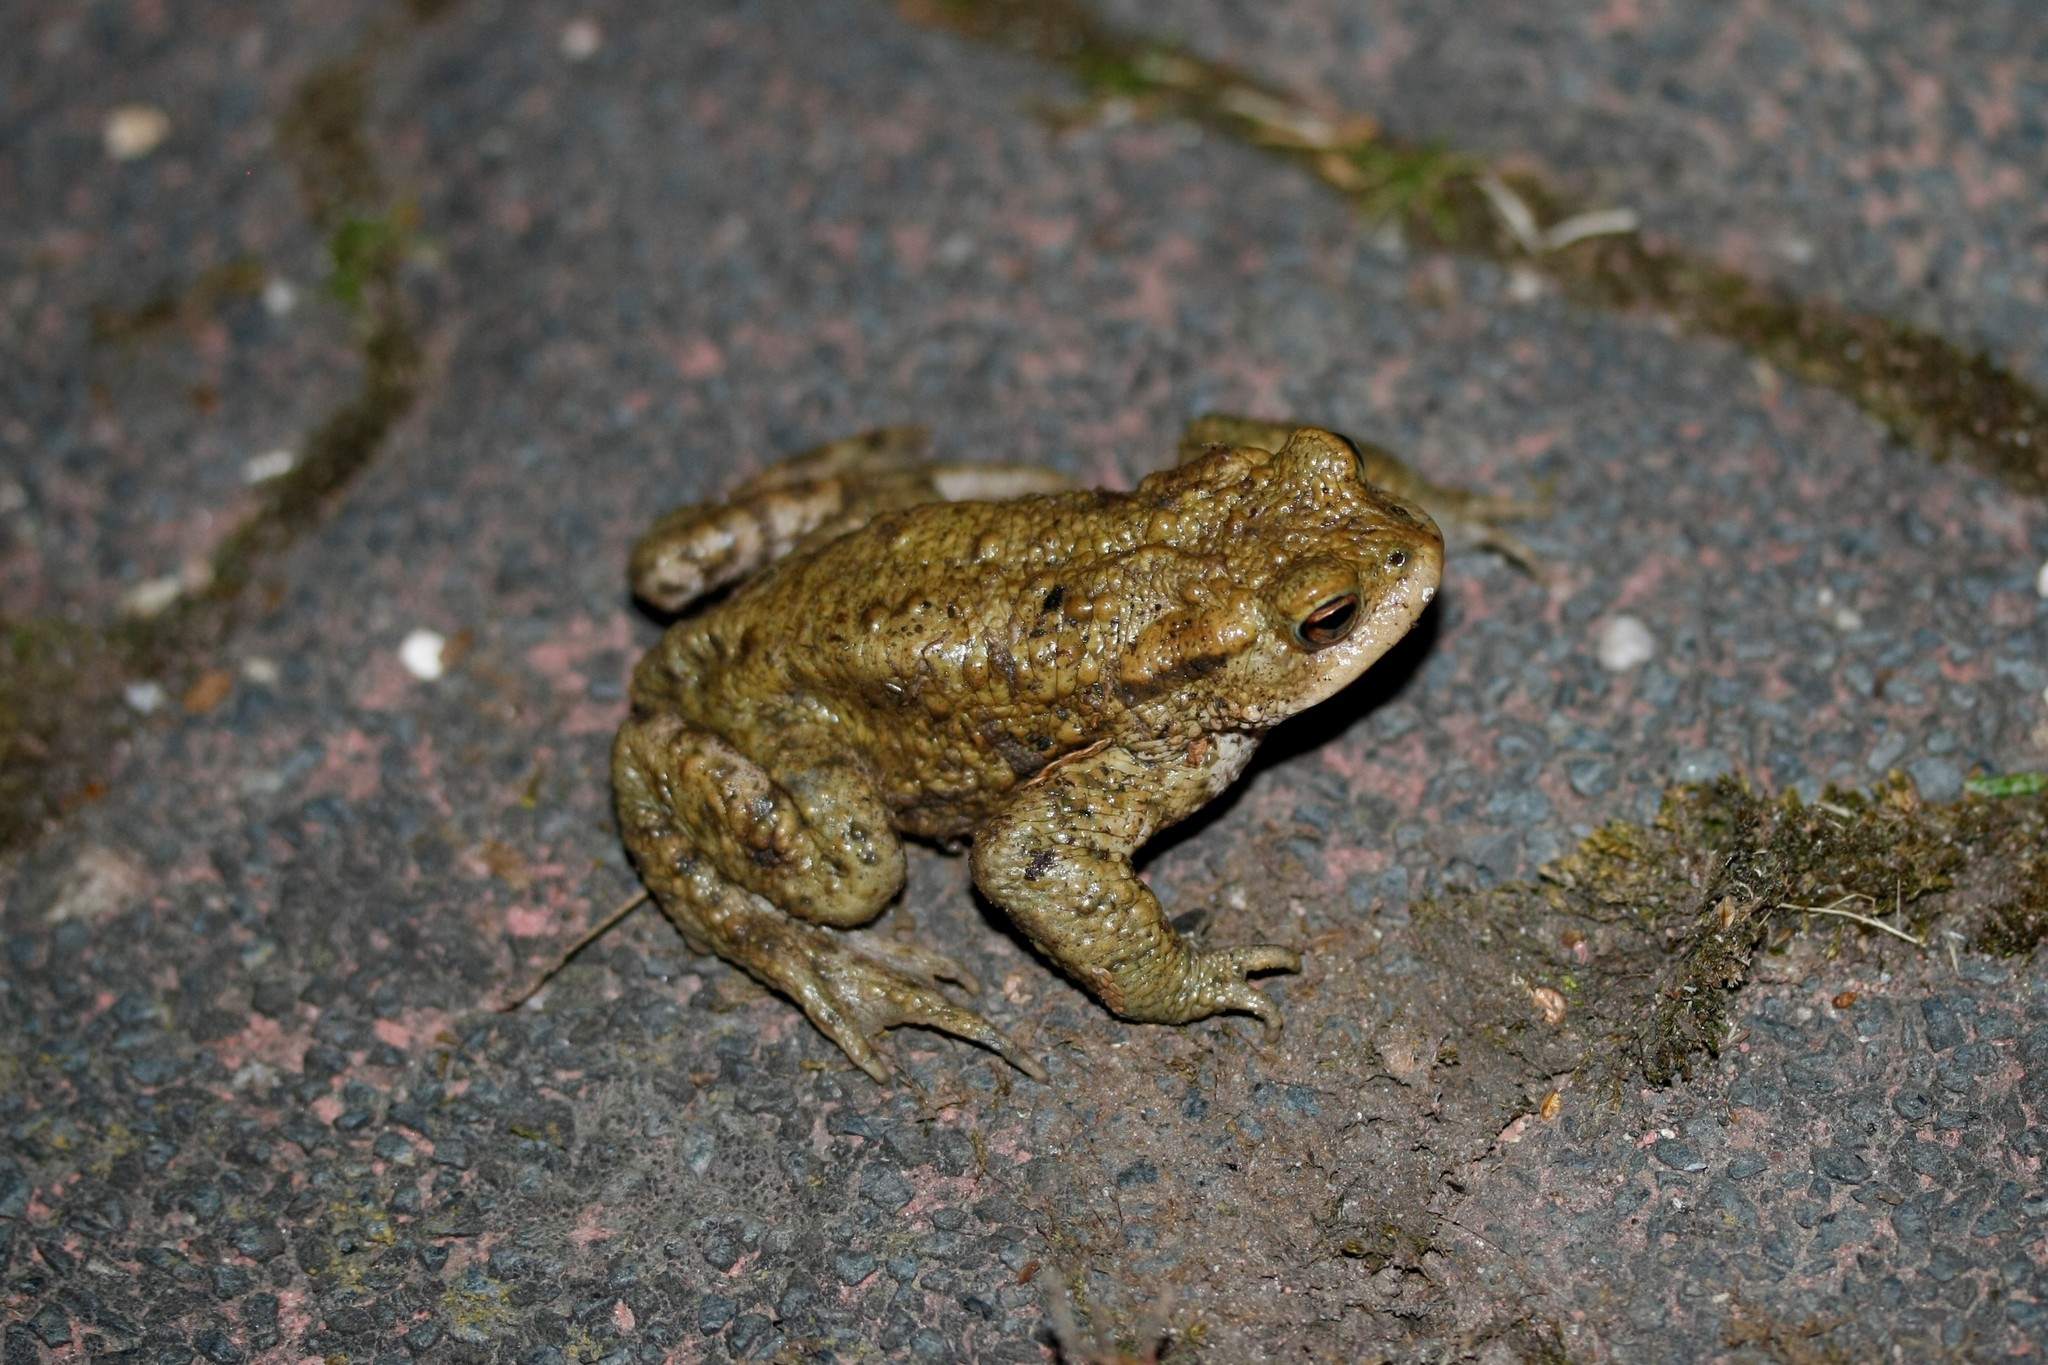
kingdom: Animalia
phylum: Chordata
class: Amphibia
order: Anura
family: Bufonidae
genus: Bufo
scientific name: Bufo bufo
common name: Common toad
